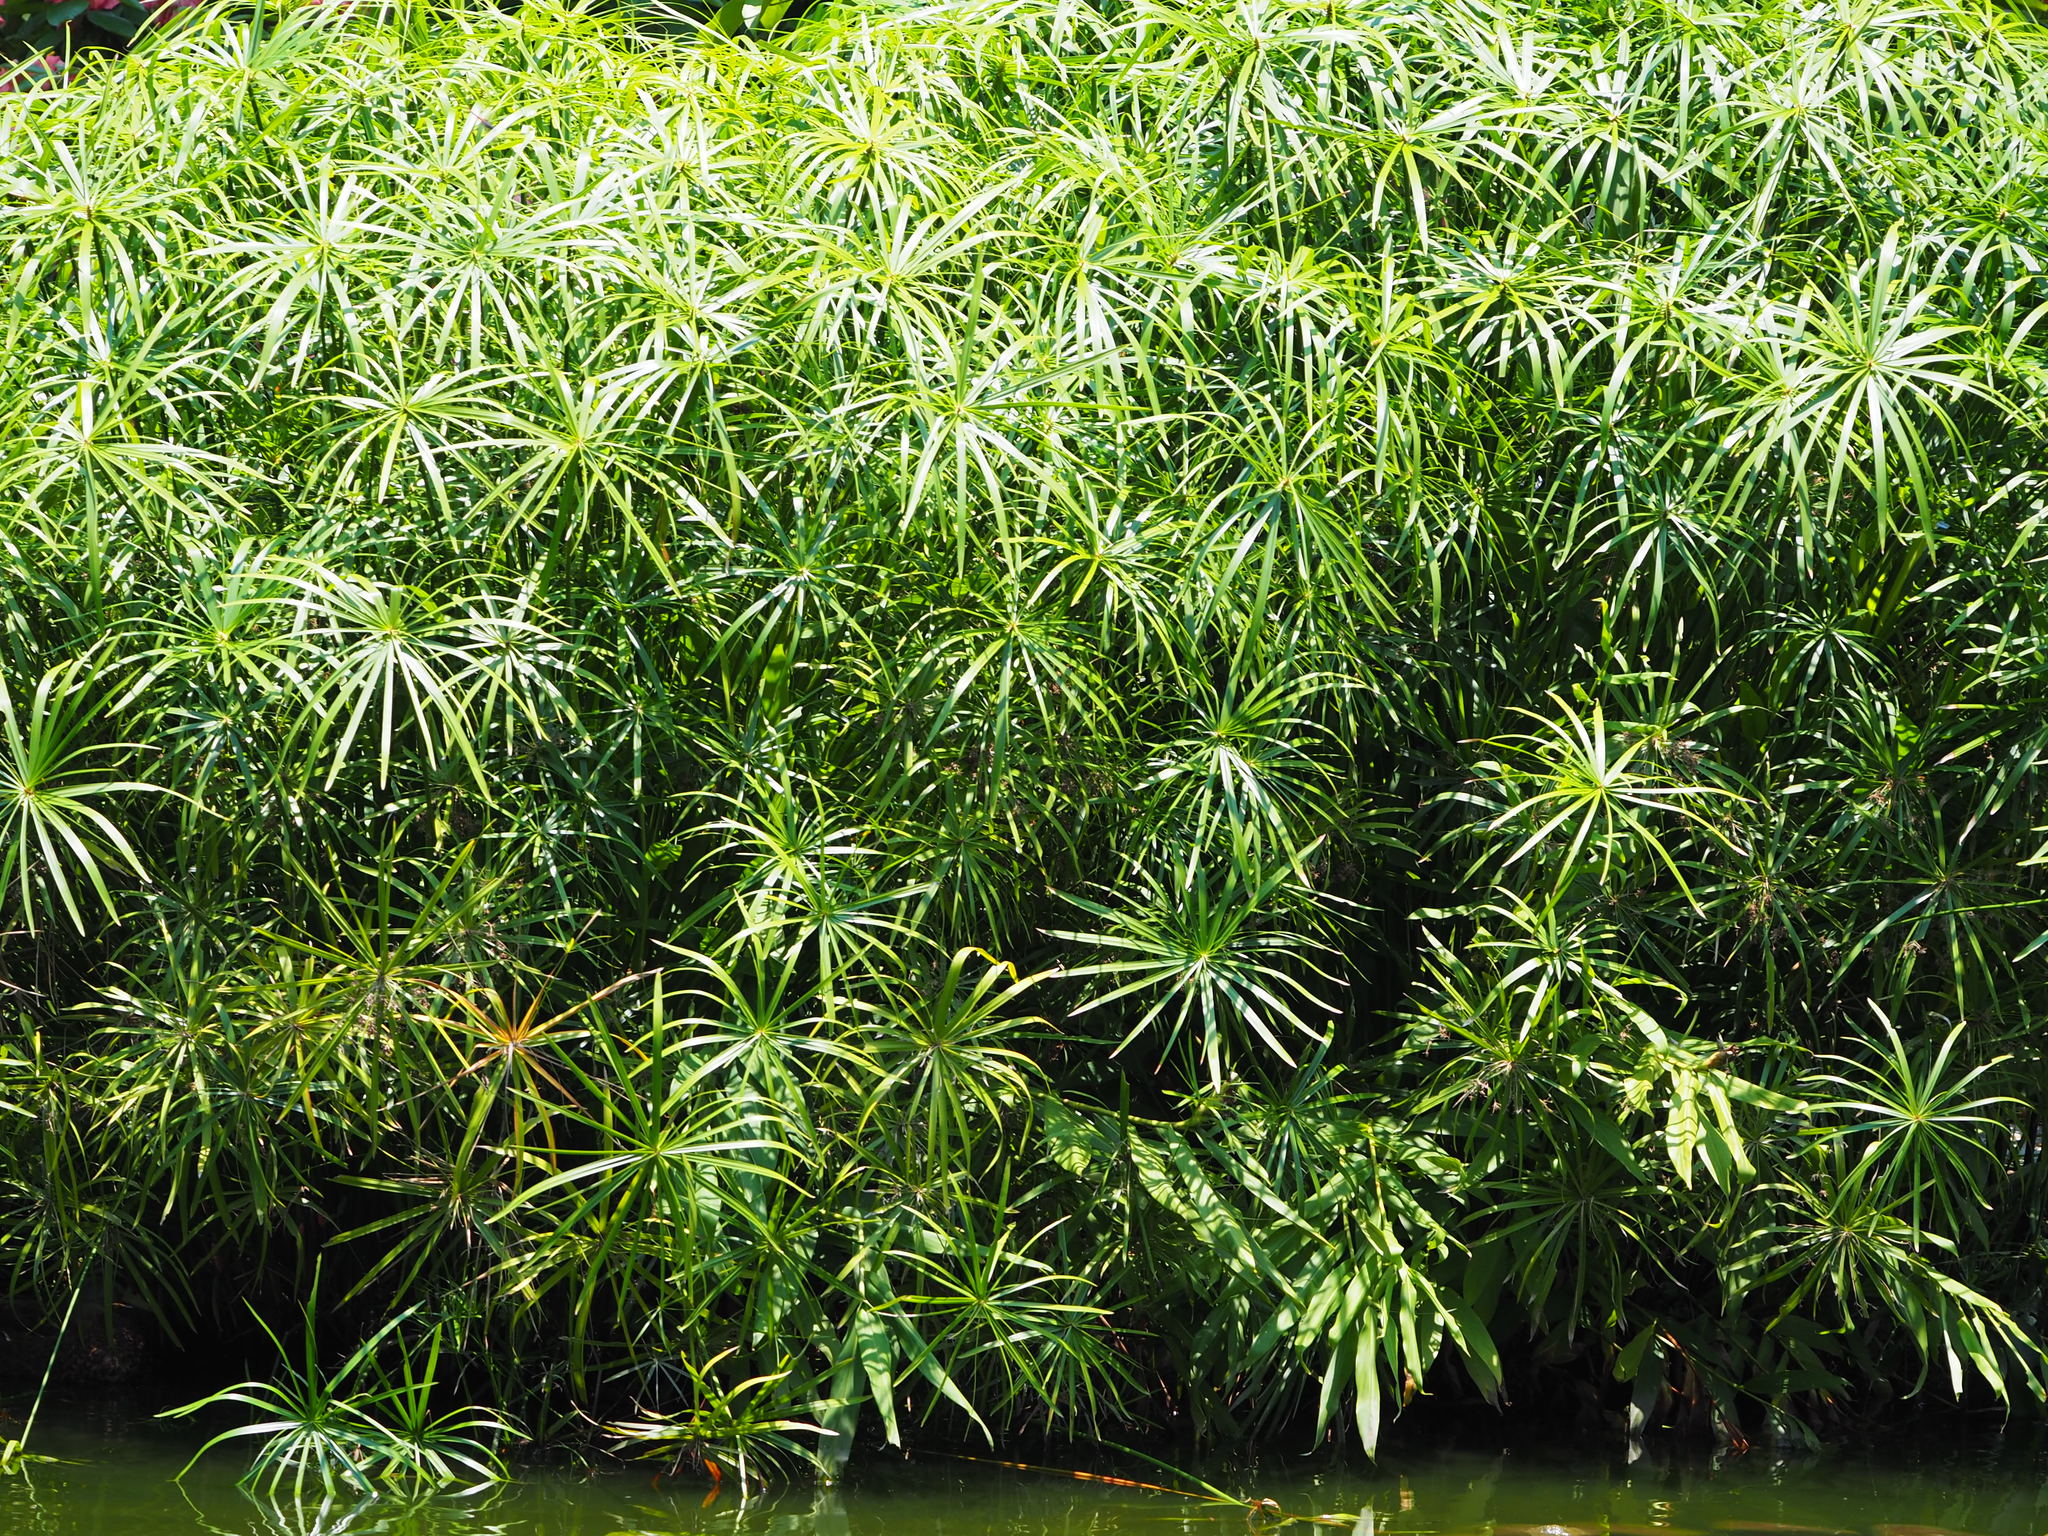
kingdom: Plantae
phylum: Tracheophyta
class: Liliopsida
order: Poales
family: Cyperaceae
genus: Cyperus
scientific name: Cyperus alternifolius
